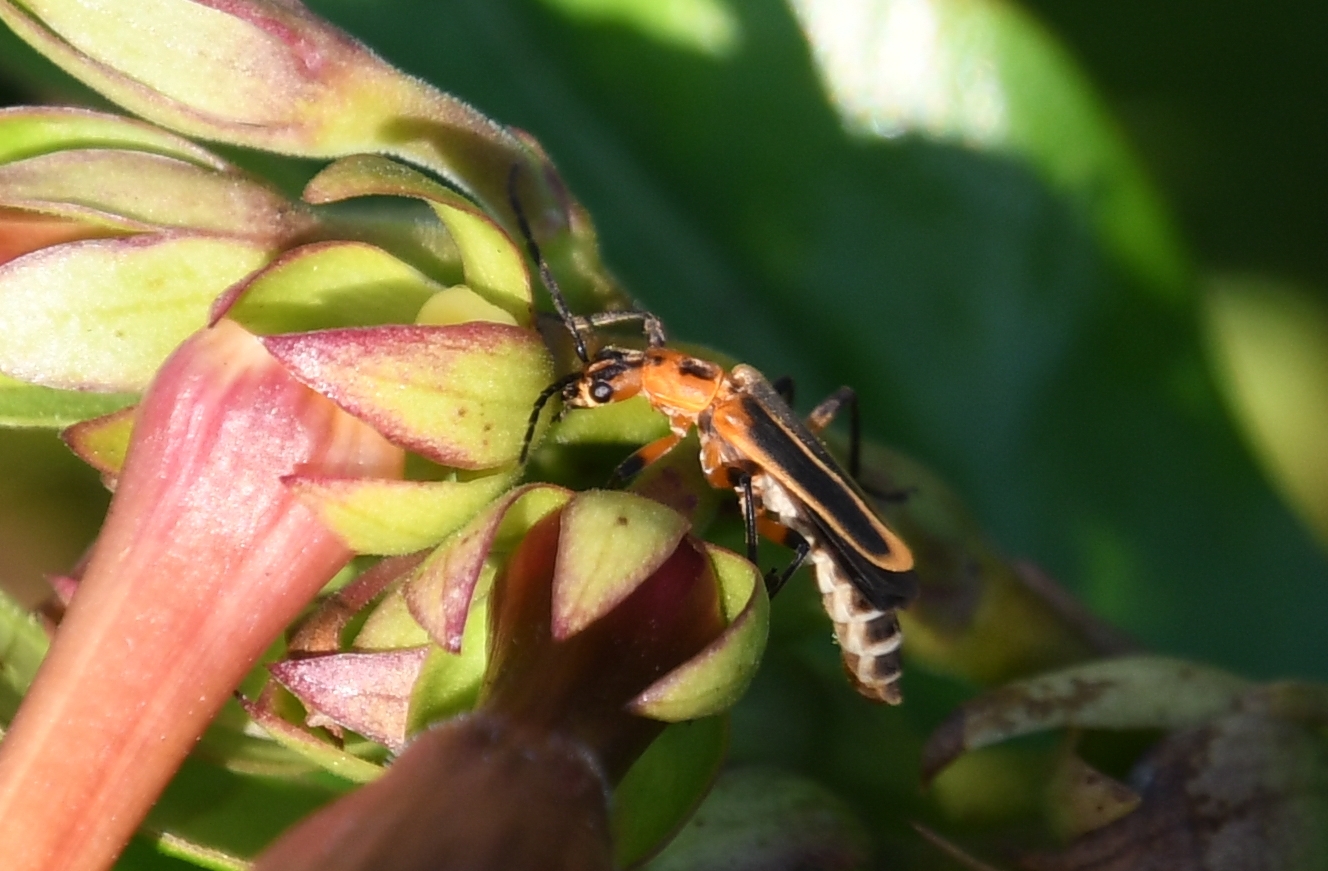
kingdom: Animalia
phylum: Arthropoda
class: Insecta
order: Coleoptera
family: Cantharidae
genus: Chauliognathus
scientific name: Chauliognathus marginatus
